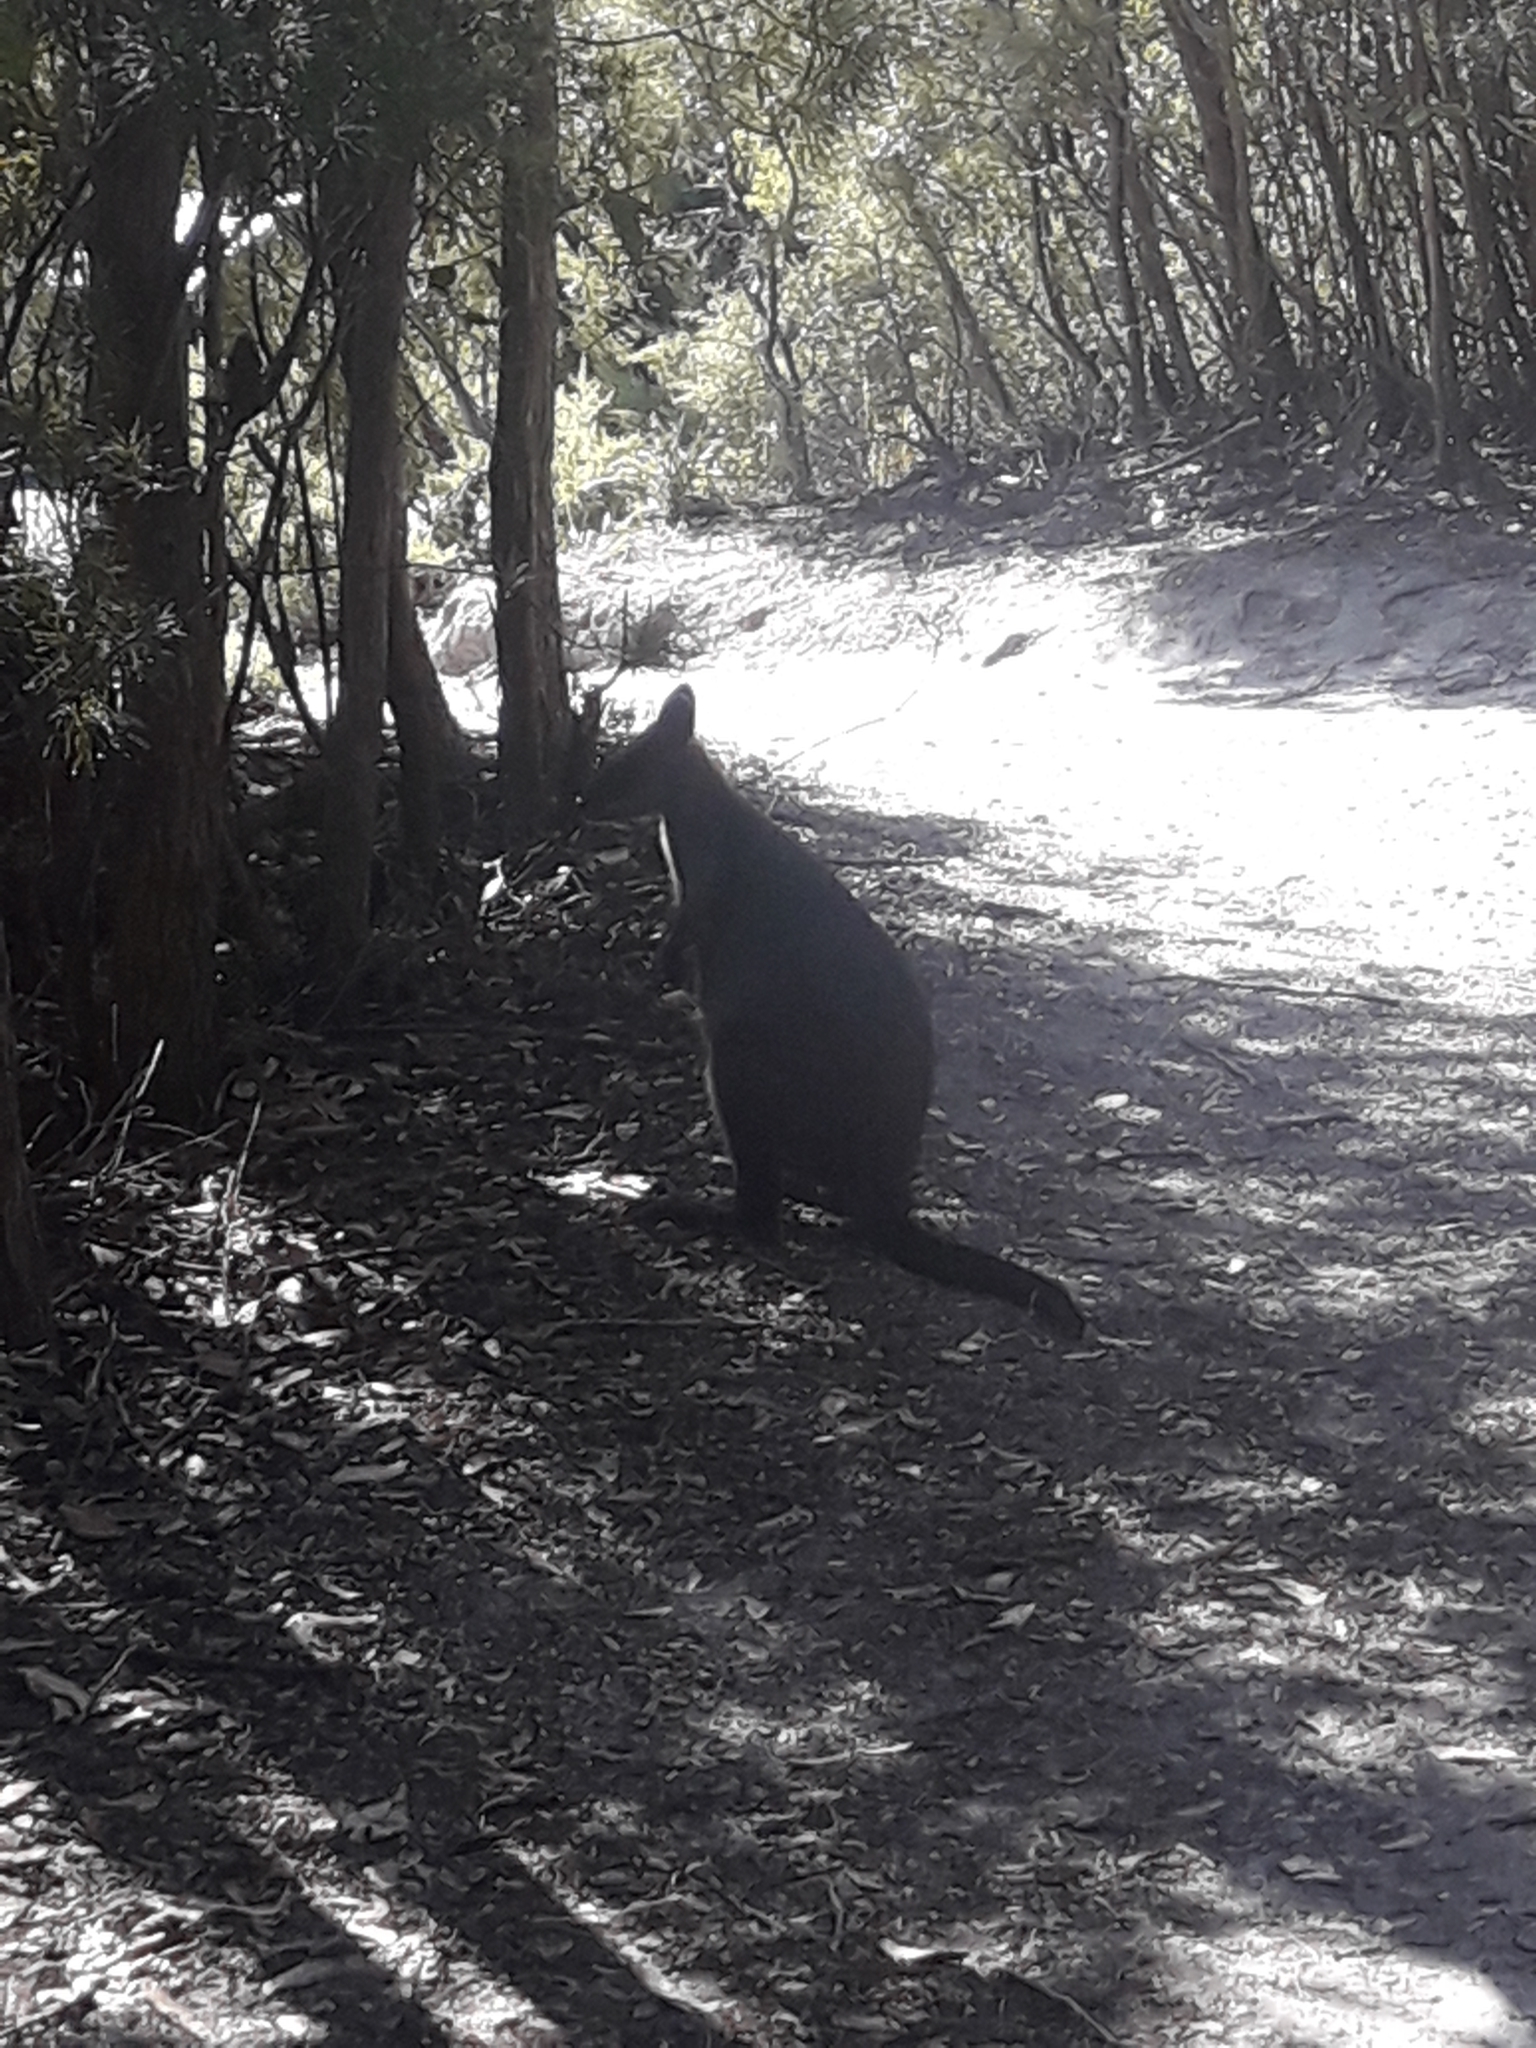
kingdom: Animalia
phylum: Chordata
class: Mammalia
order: Diprotodontia
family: Macropodidae
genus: Wallabia
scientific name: Wallabia bicolor
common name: Swamp wallaby
